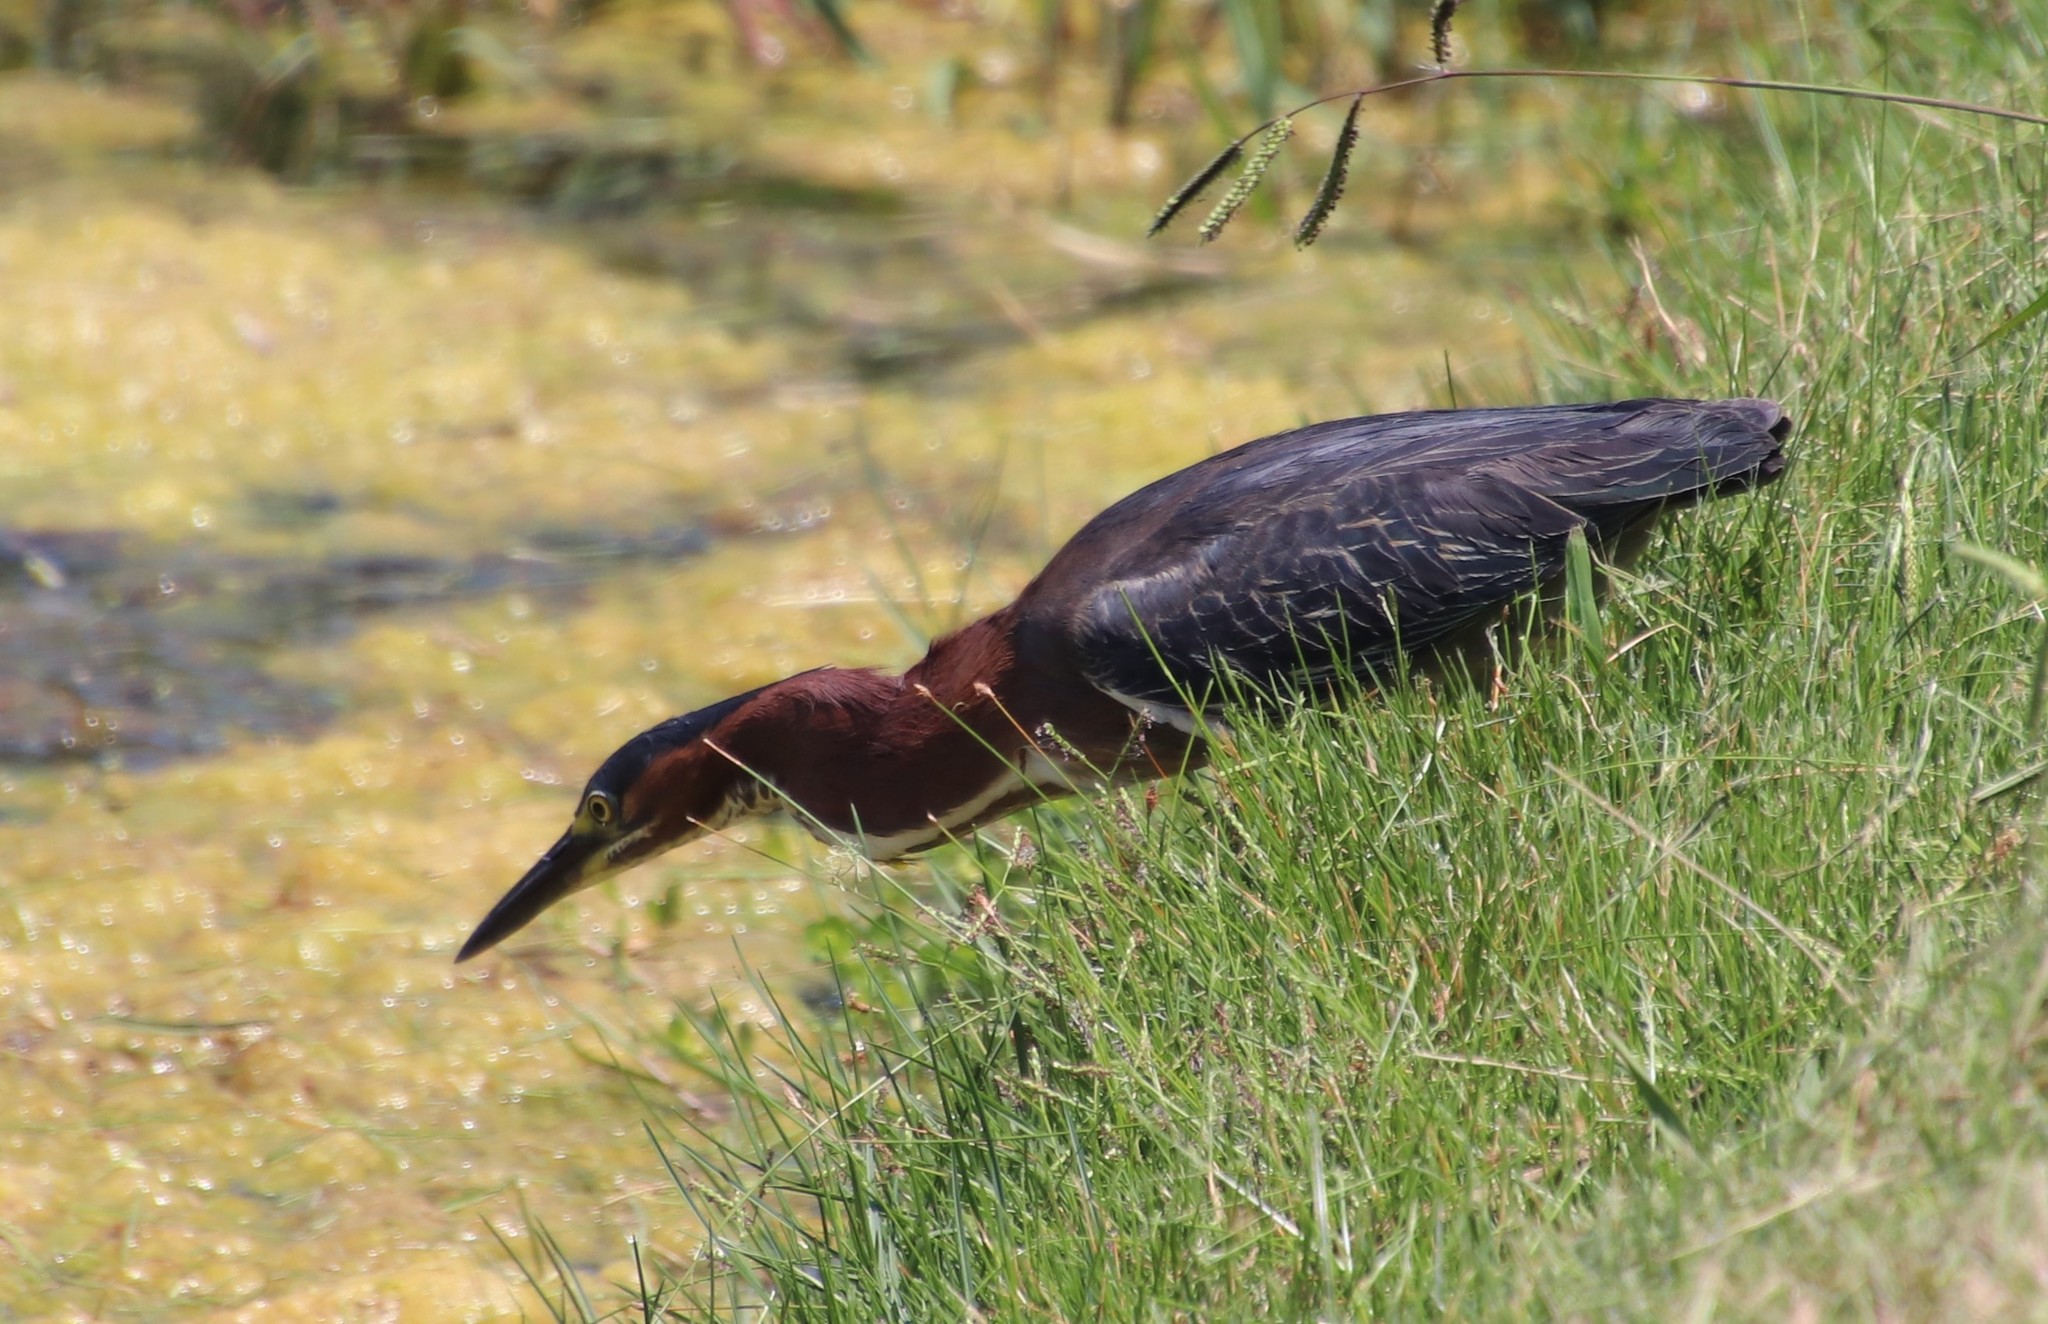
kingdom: Animalia
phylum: Chordata
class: Aves
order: Pelecaniformes
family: Ardeidae
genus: Butorides
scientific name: Butorides virescens
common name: Green heron
